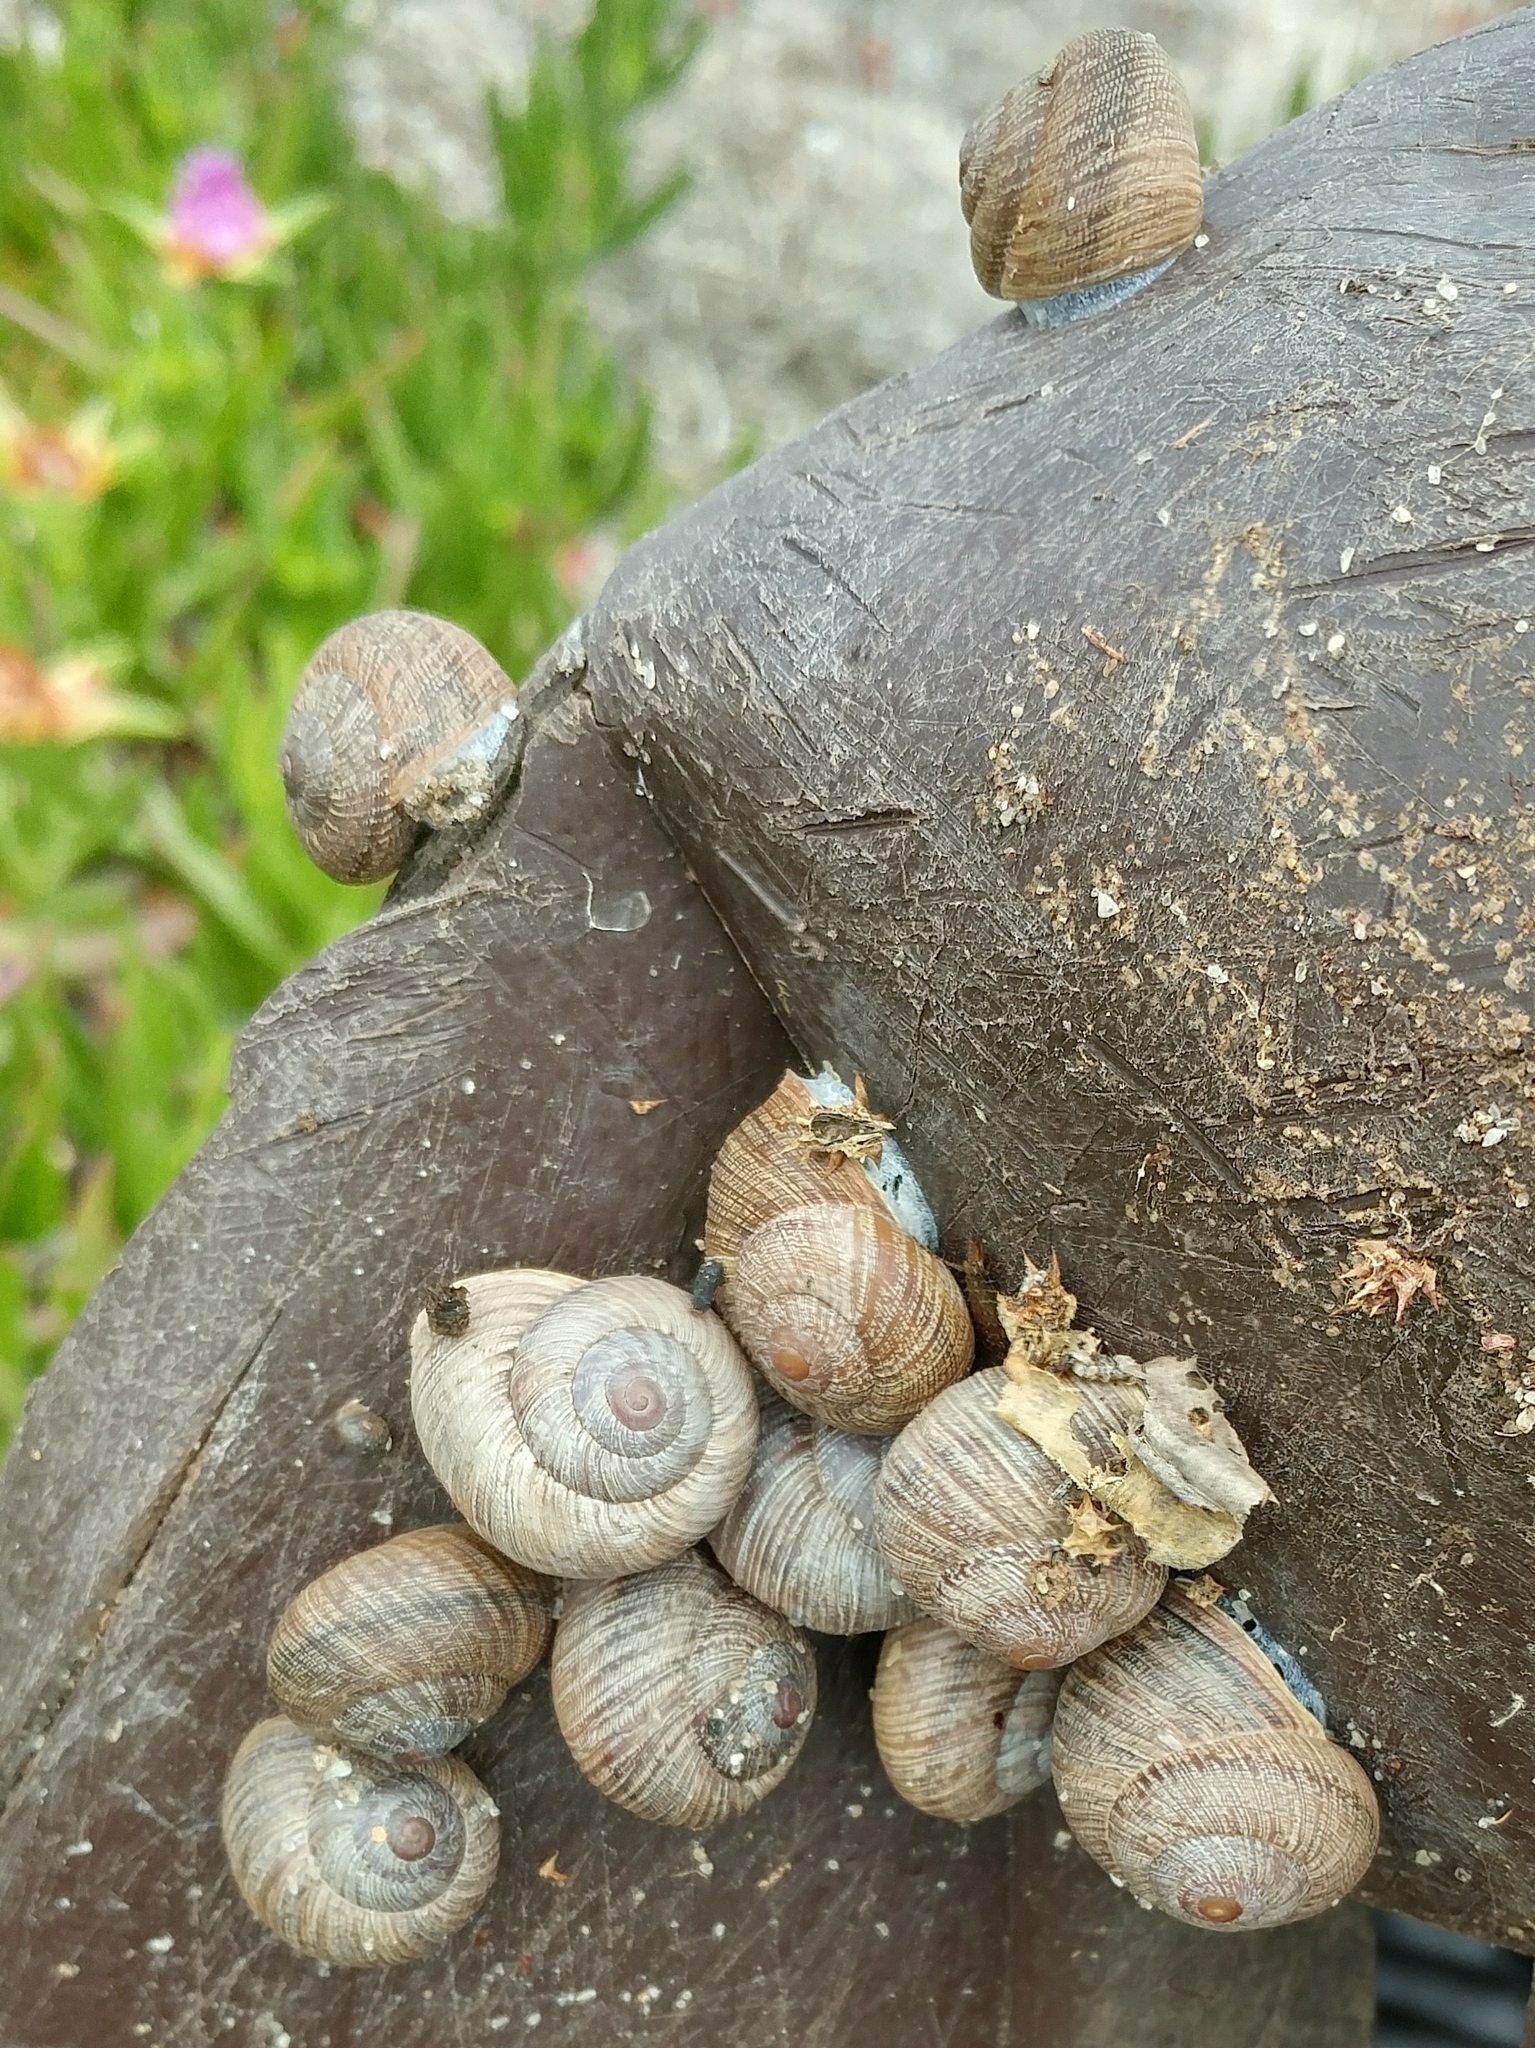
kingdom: Animalia
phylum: Mollusca
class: Gastropoda
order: Stylommatophora
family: Xanthonychidae
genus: Xerarionta
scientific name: Xerarionta intercisa
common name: Plain cactus snail
